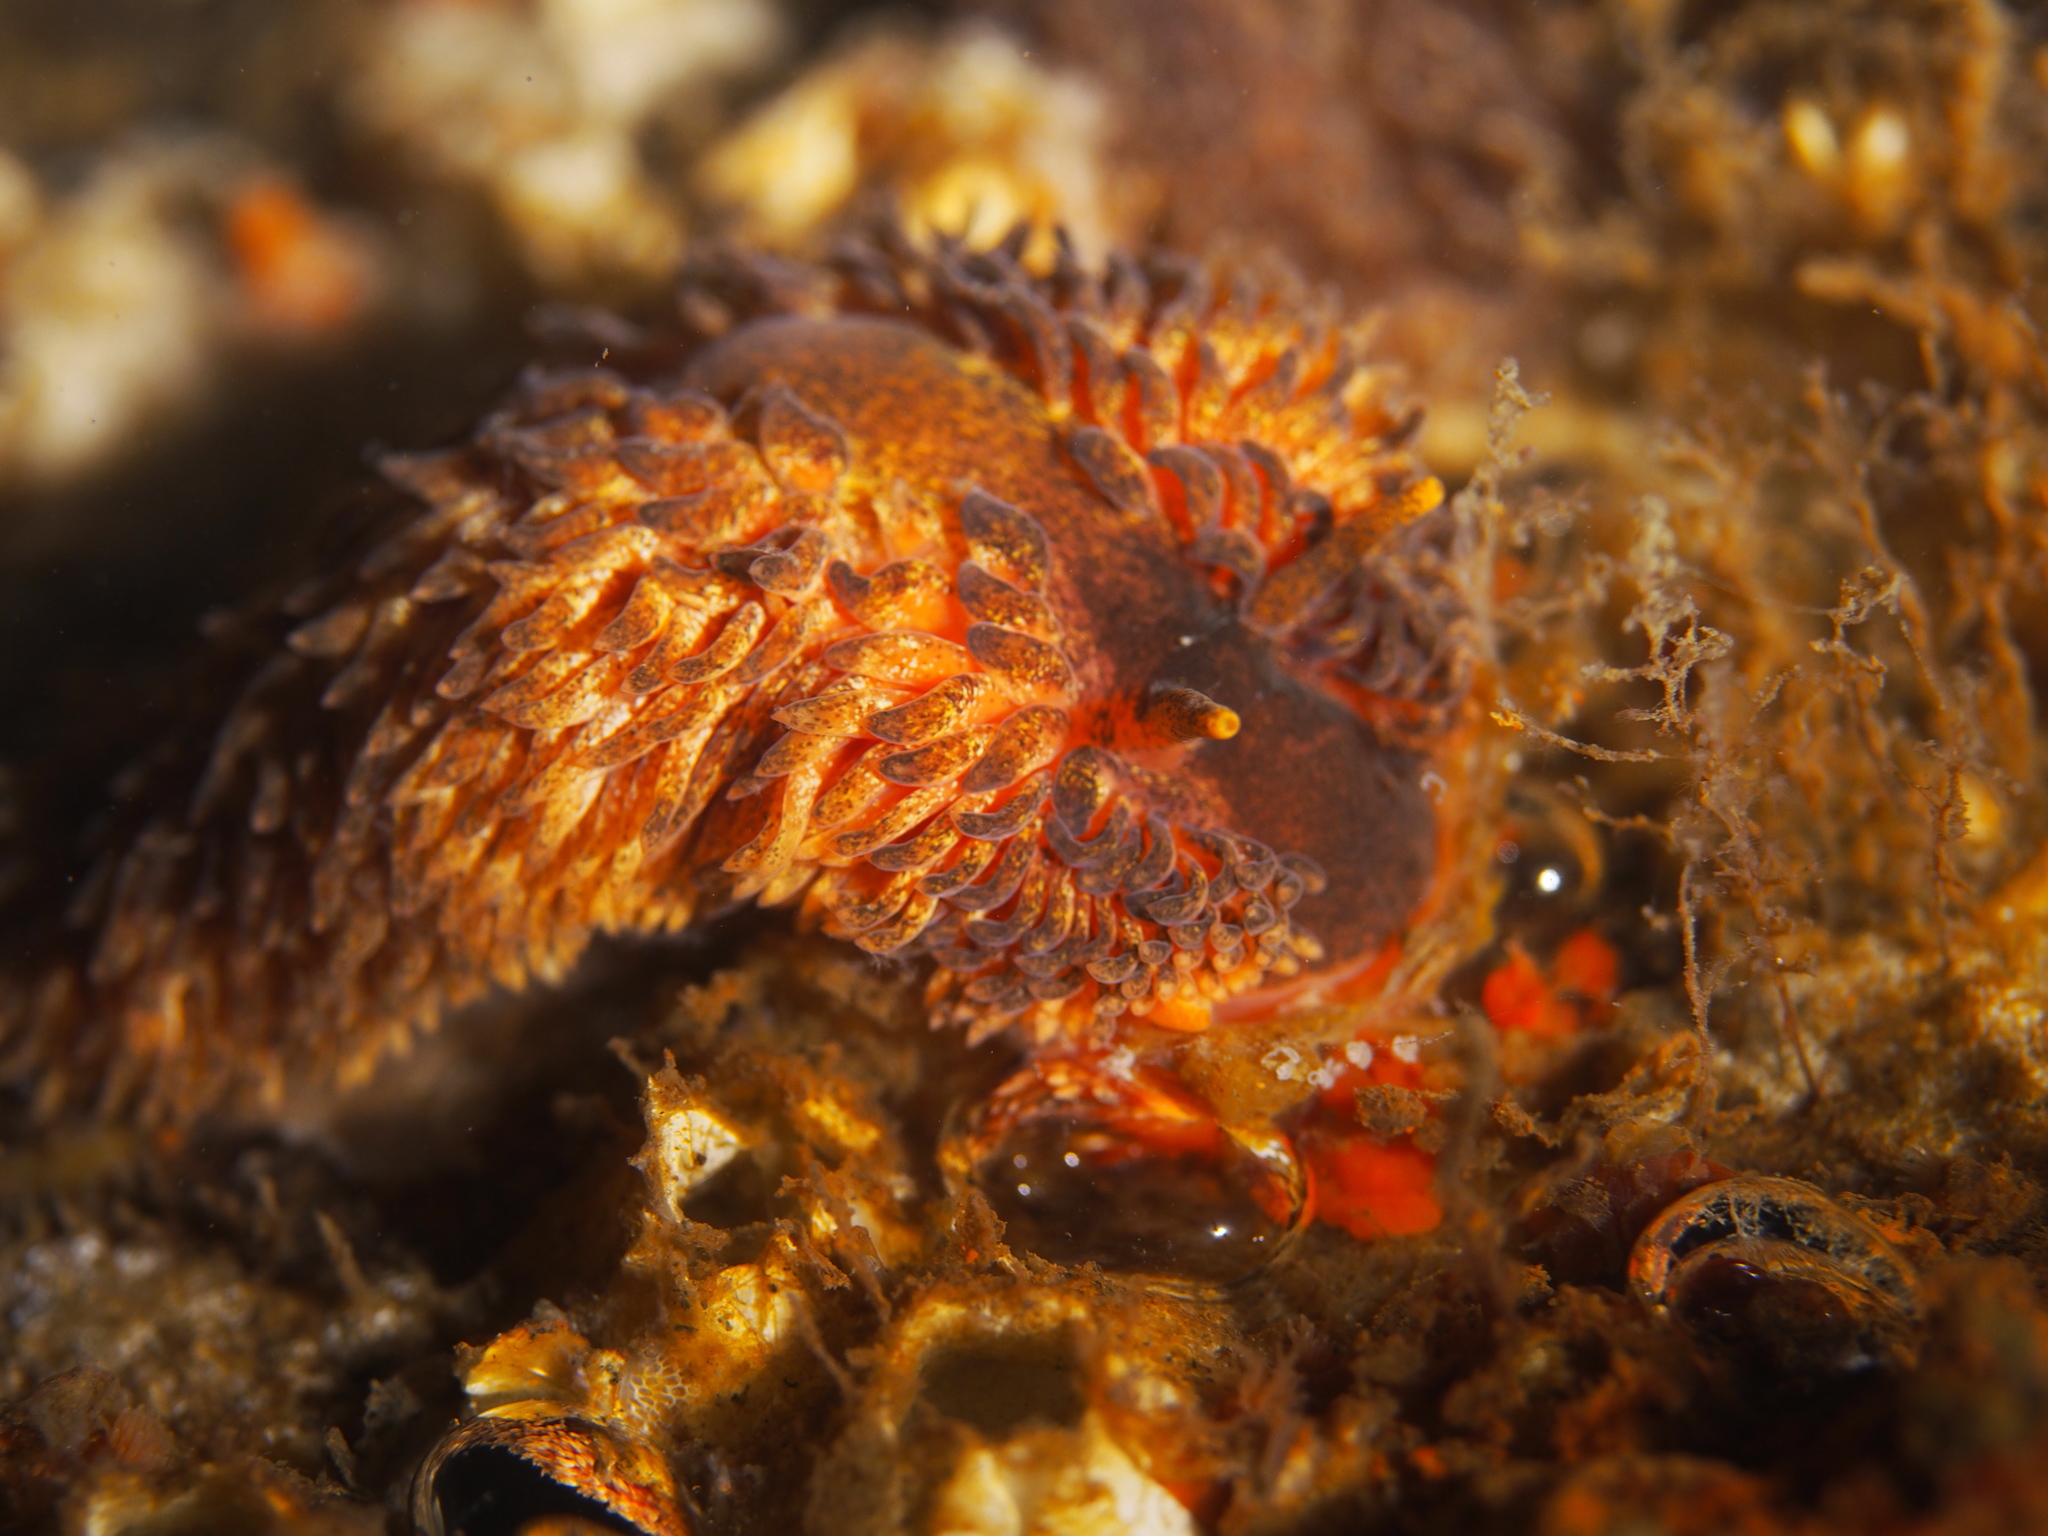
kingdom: Animalia
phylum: Mollusca
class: Gastropoda
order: Nudibranchia
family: Aeolidiidae
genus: Aeolidia
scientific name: Aeolidia papillosa
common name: Common grey sea slug
